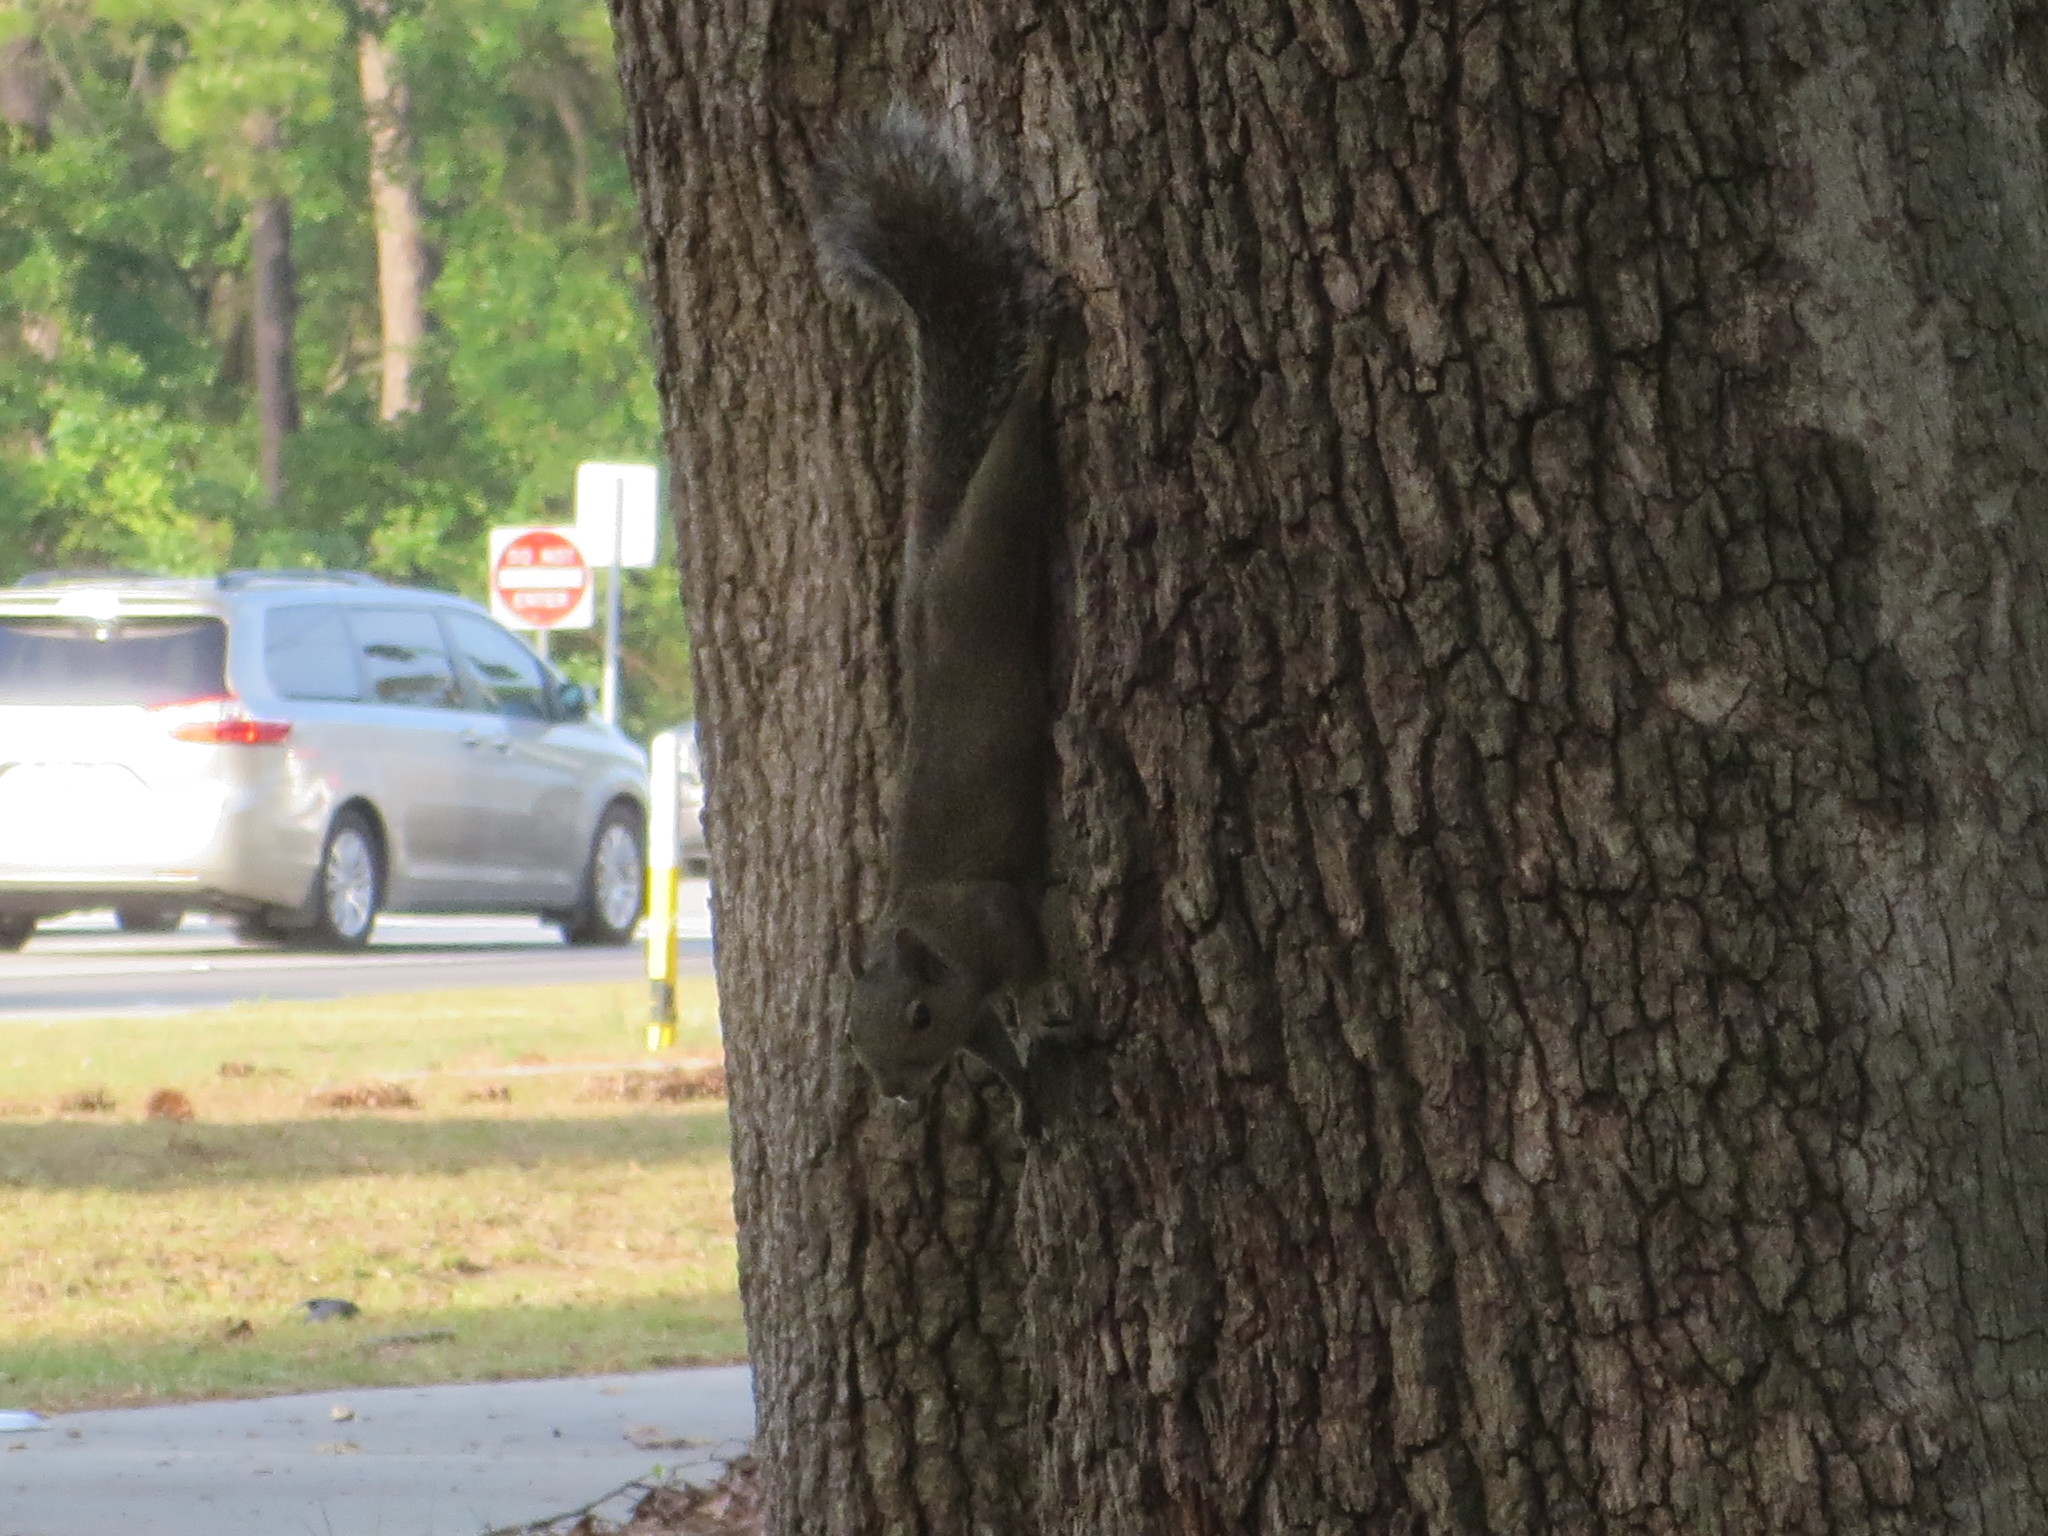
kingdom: Animalia
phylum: Chordata
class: Mammalia
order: Rodentia
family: Sciuridae
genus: Sciurus
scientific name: Sciurus carolinensis
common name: Eastern gray squirrel
